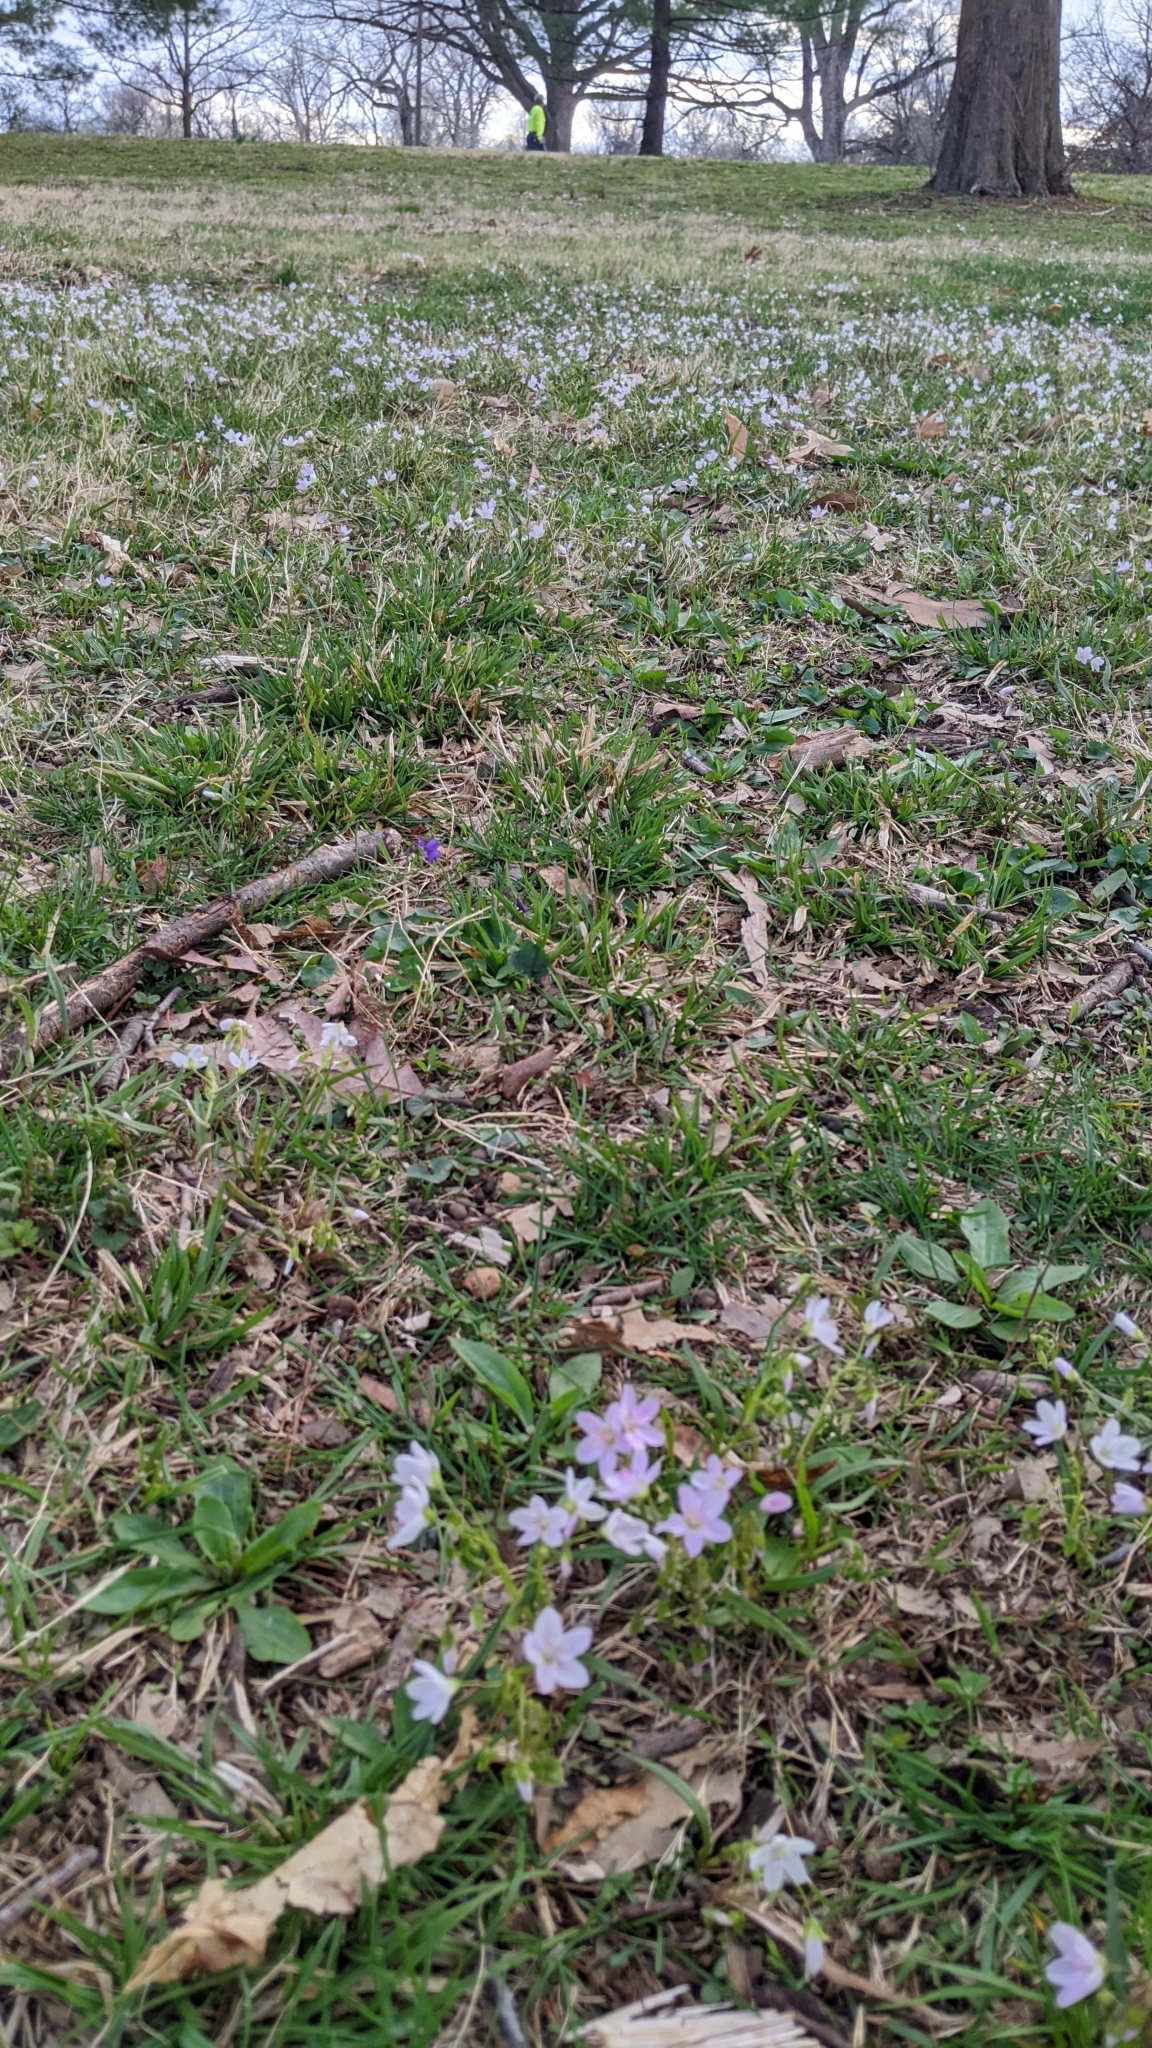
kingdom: Plantae
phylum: Tracheophyta
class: Magnoliopsida
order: Caryophyllales
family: Montiaceae
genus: Claytonia
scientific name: Claytonia virginica
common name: Virginia springbeauty
